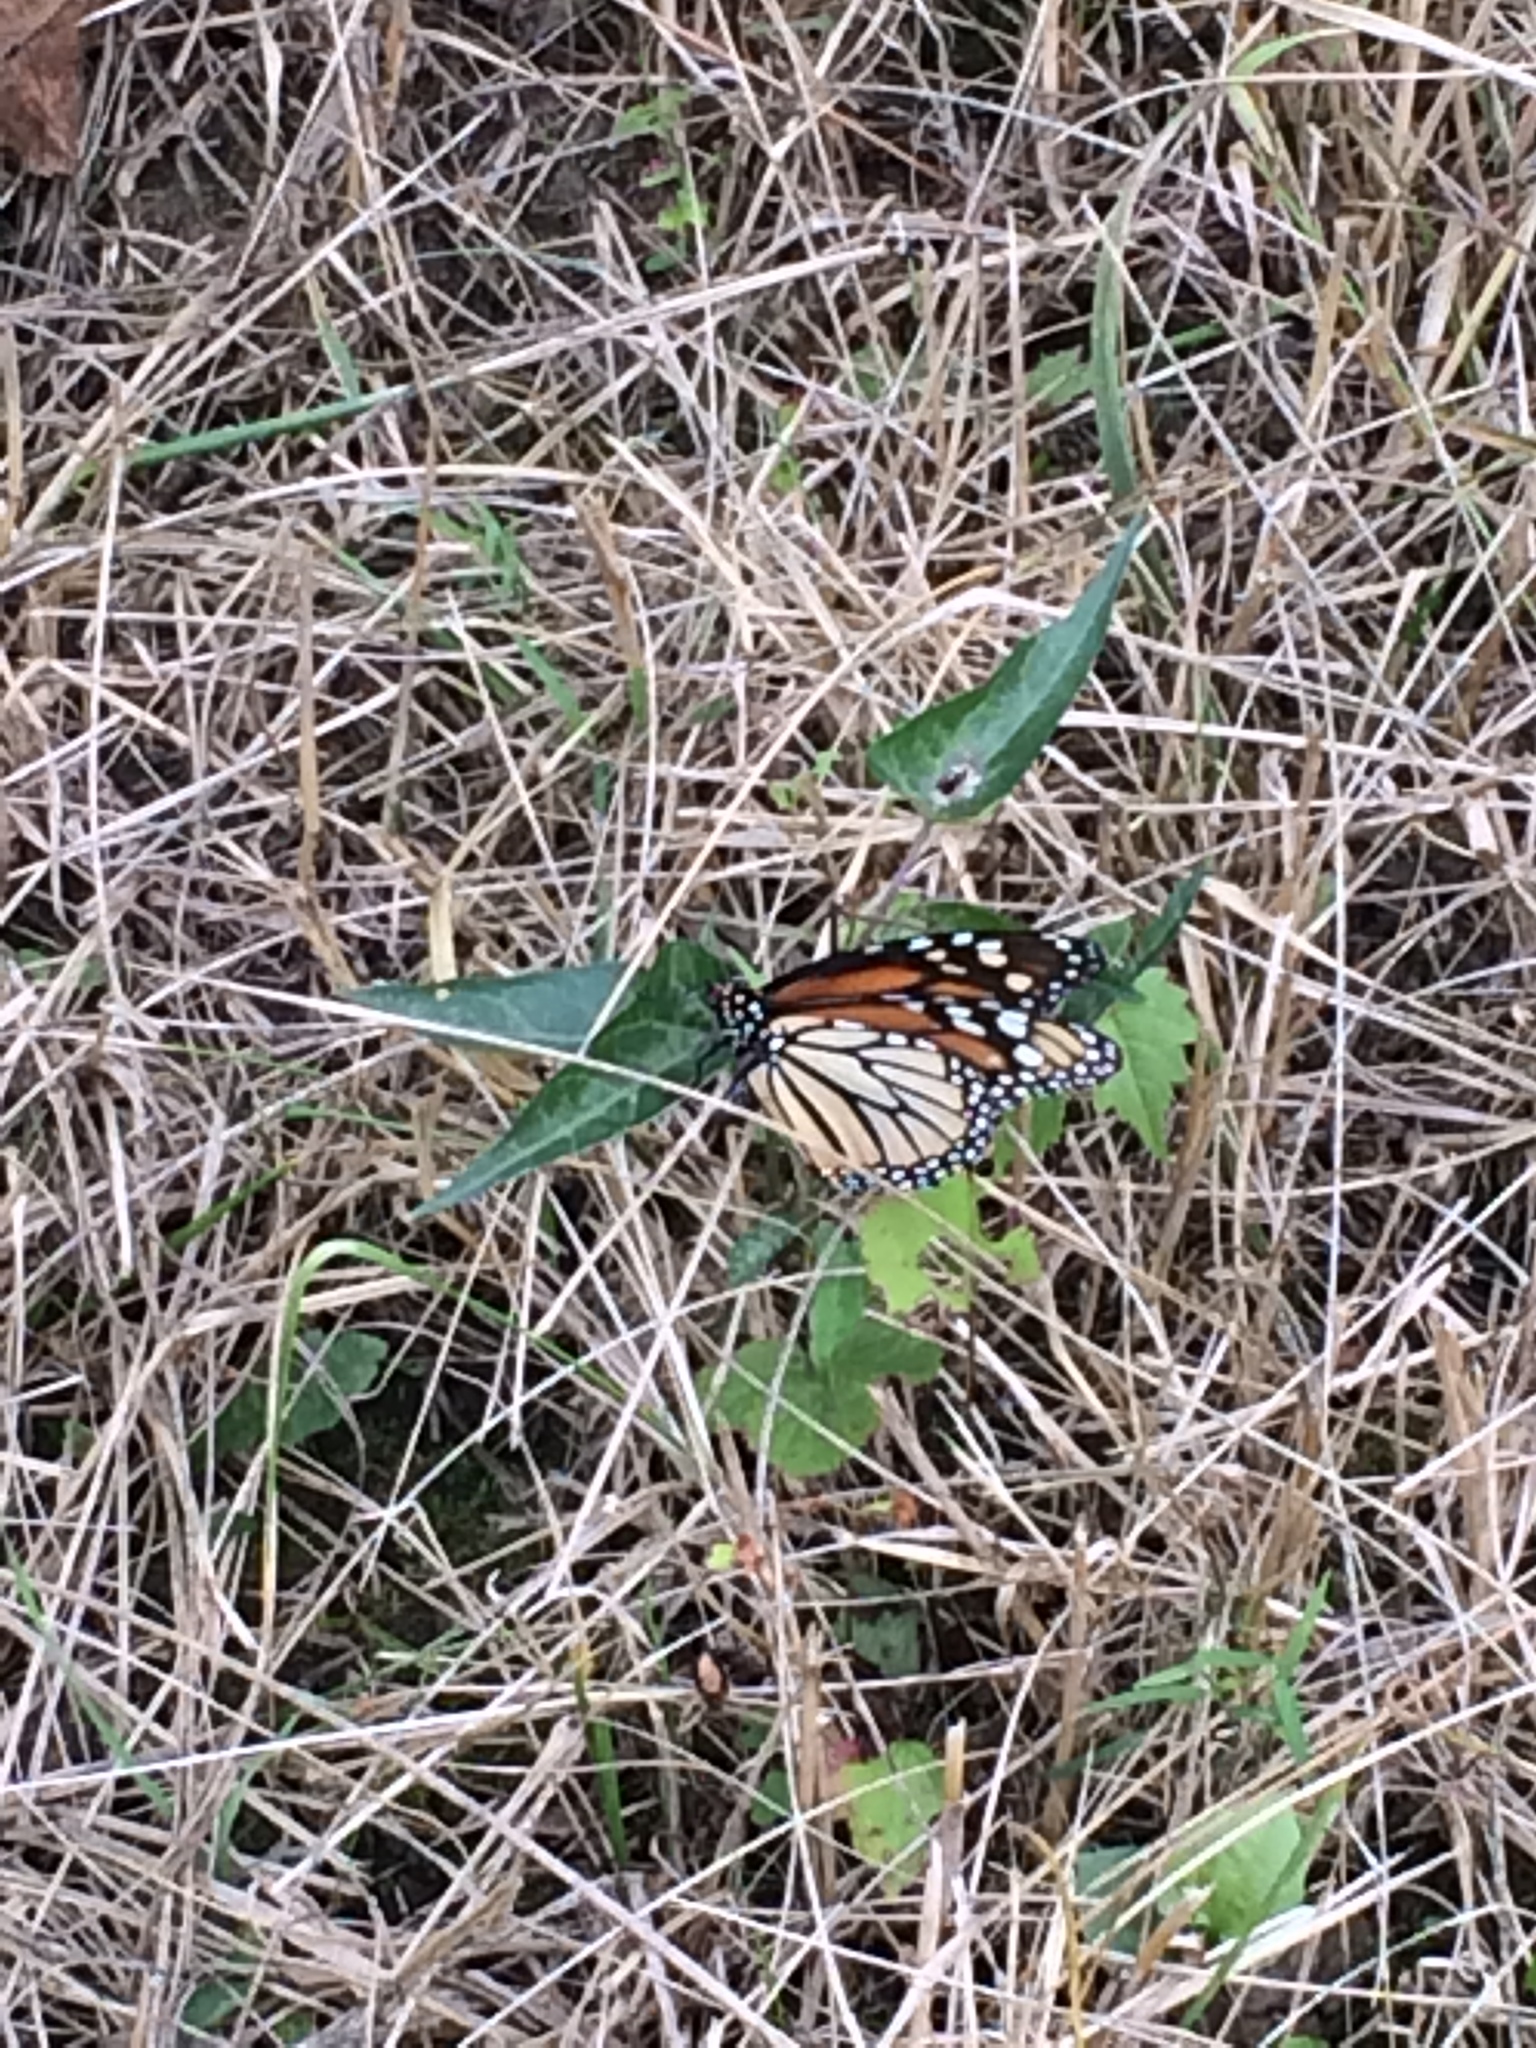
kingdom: Animalia
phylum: Arthropoda
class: Insecta
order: Lepidoptera
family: Nymphalidae
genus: Danaus
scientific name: Danaus plexippus
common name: Monarch
